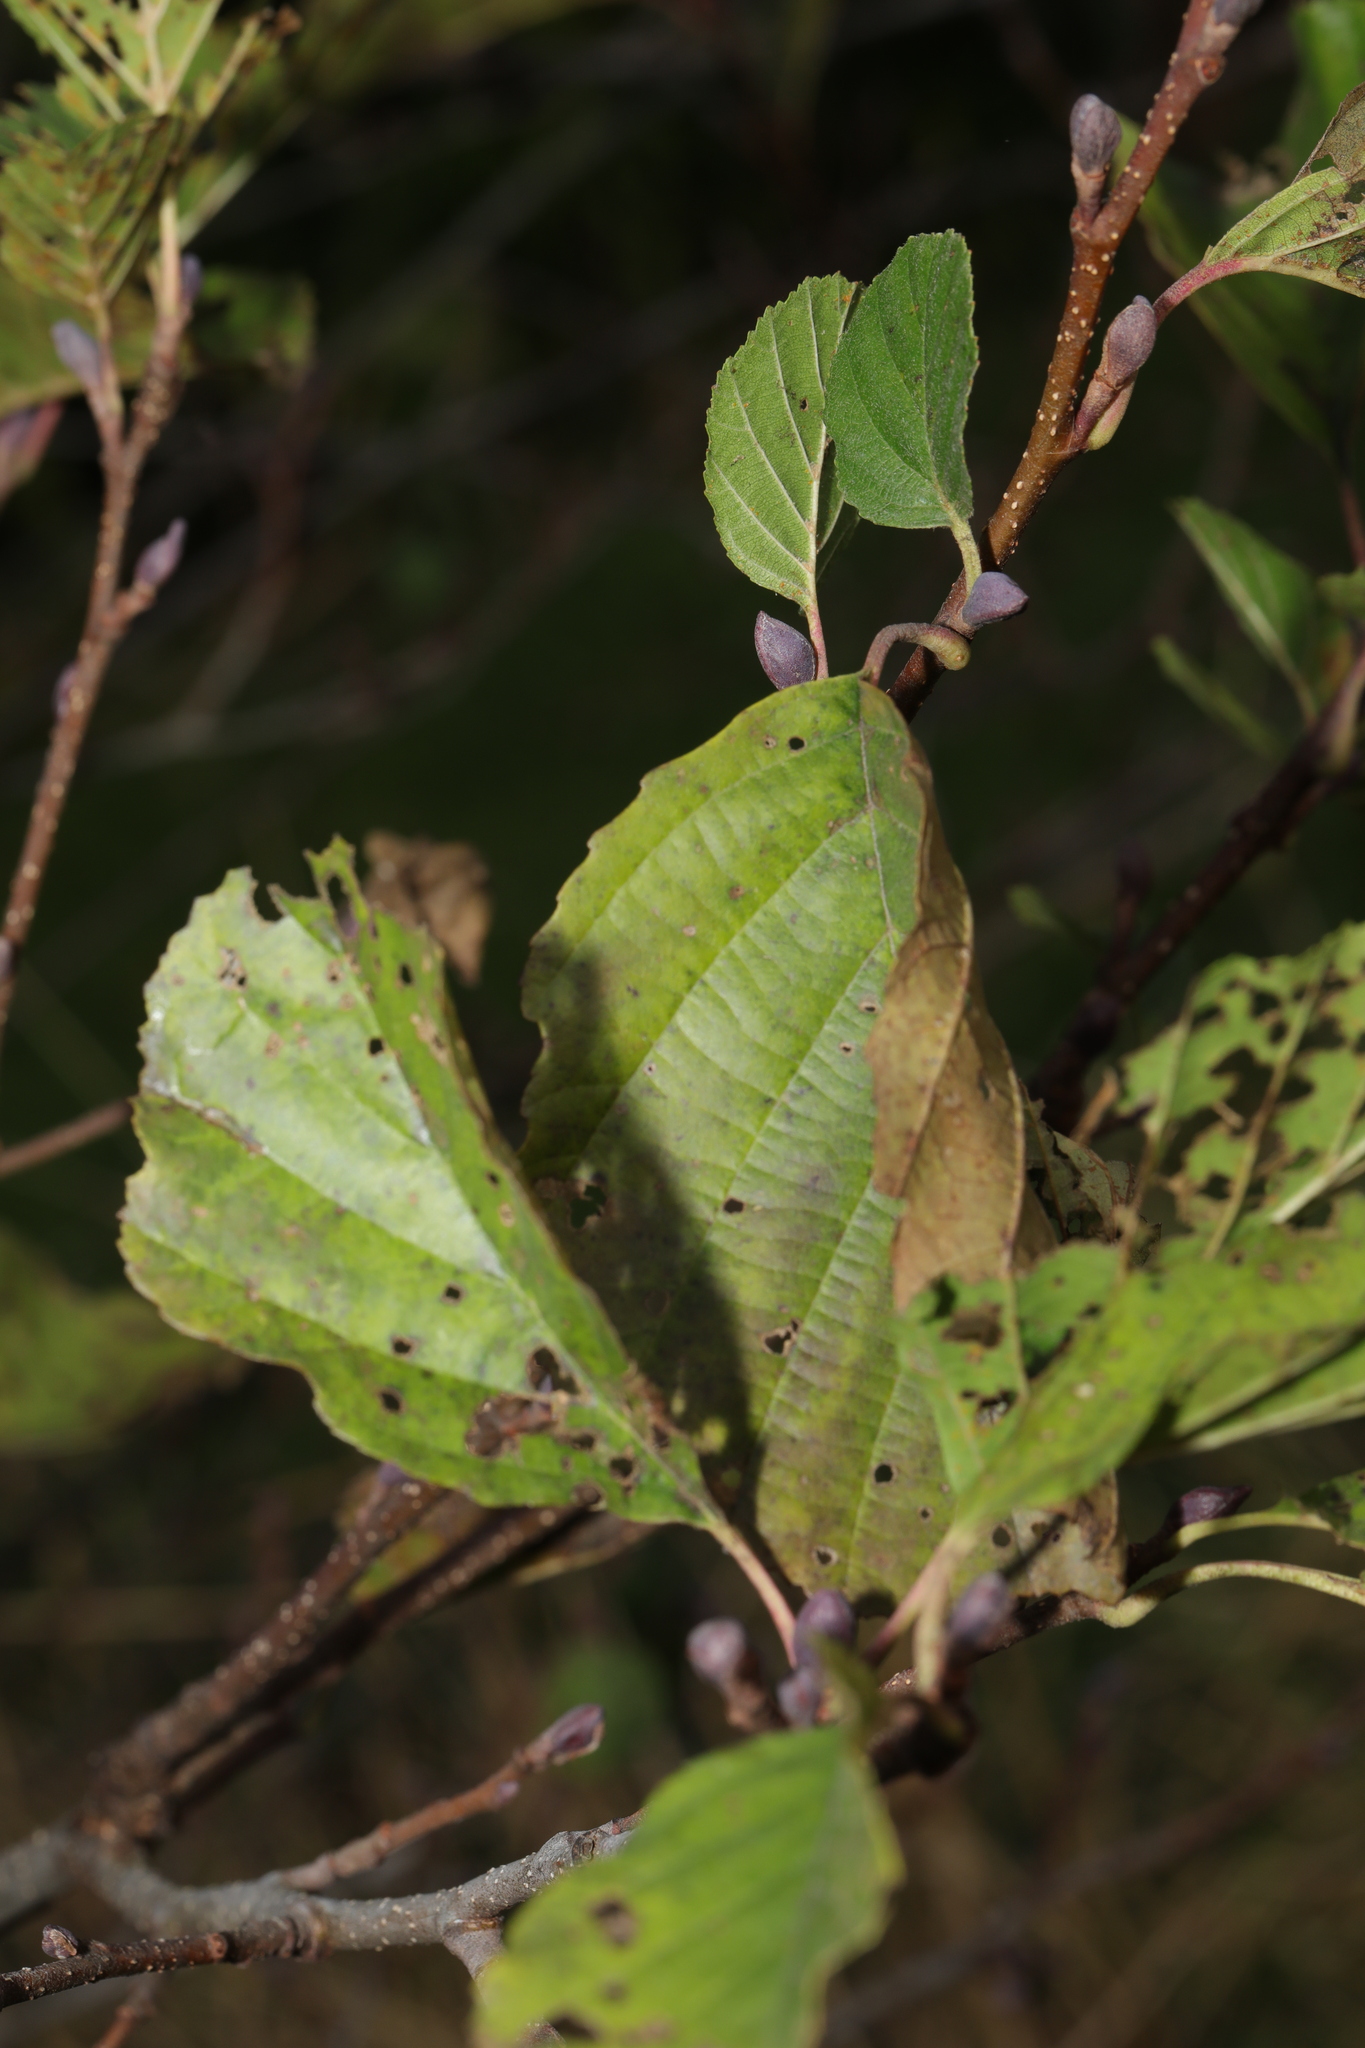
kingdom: Plantae
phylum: Tracheophyta
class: Magnoliopsida
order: Fagales
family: Betulaceae
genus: Alnus
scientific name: Alnus glutinosa
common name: Black alder
